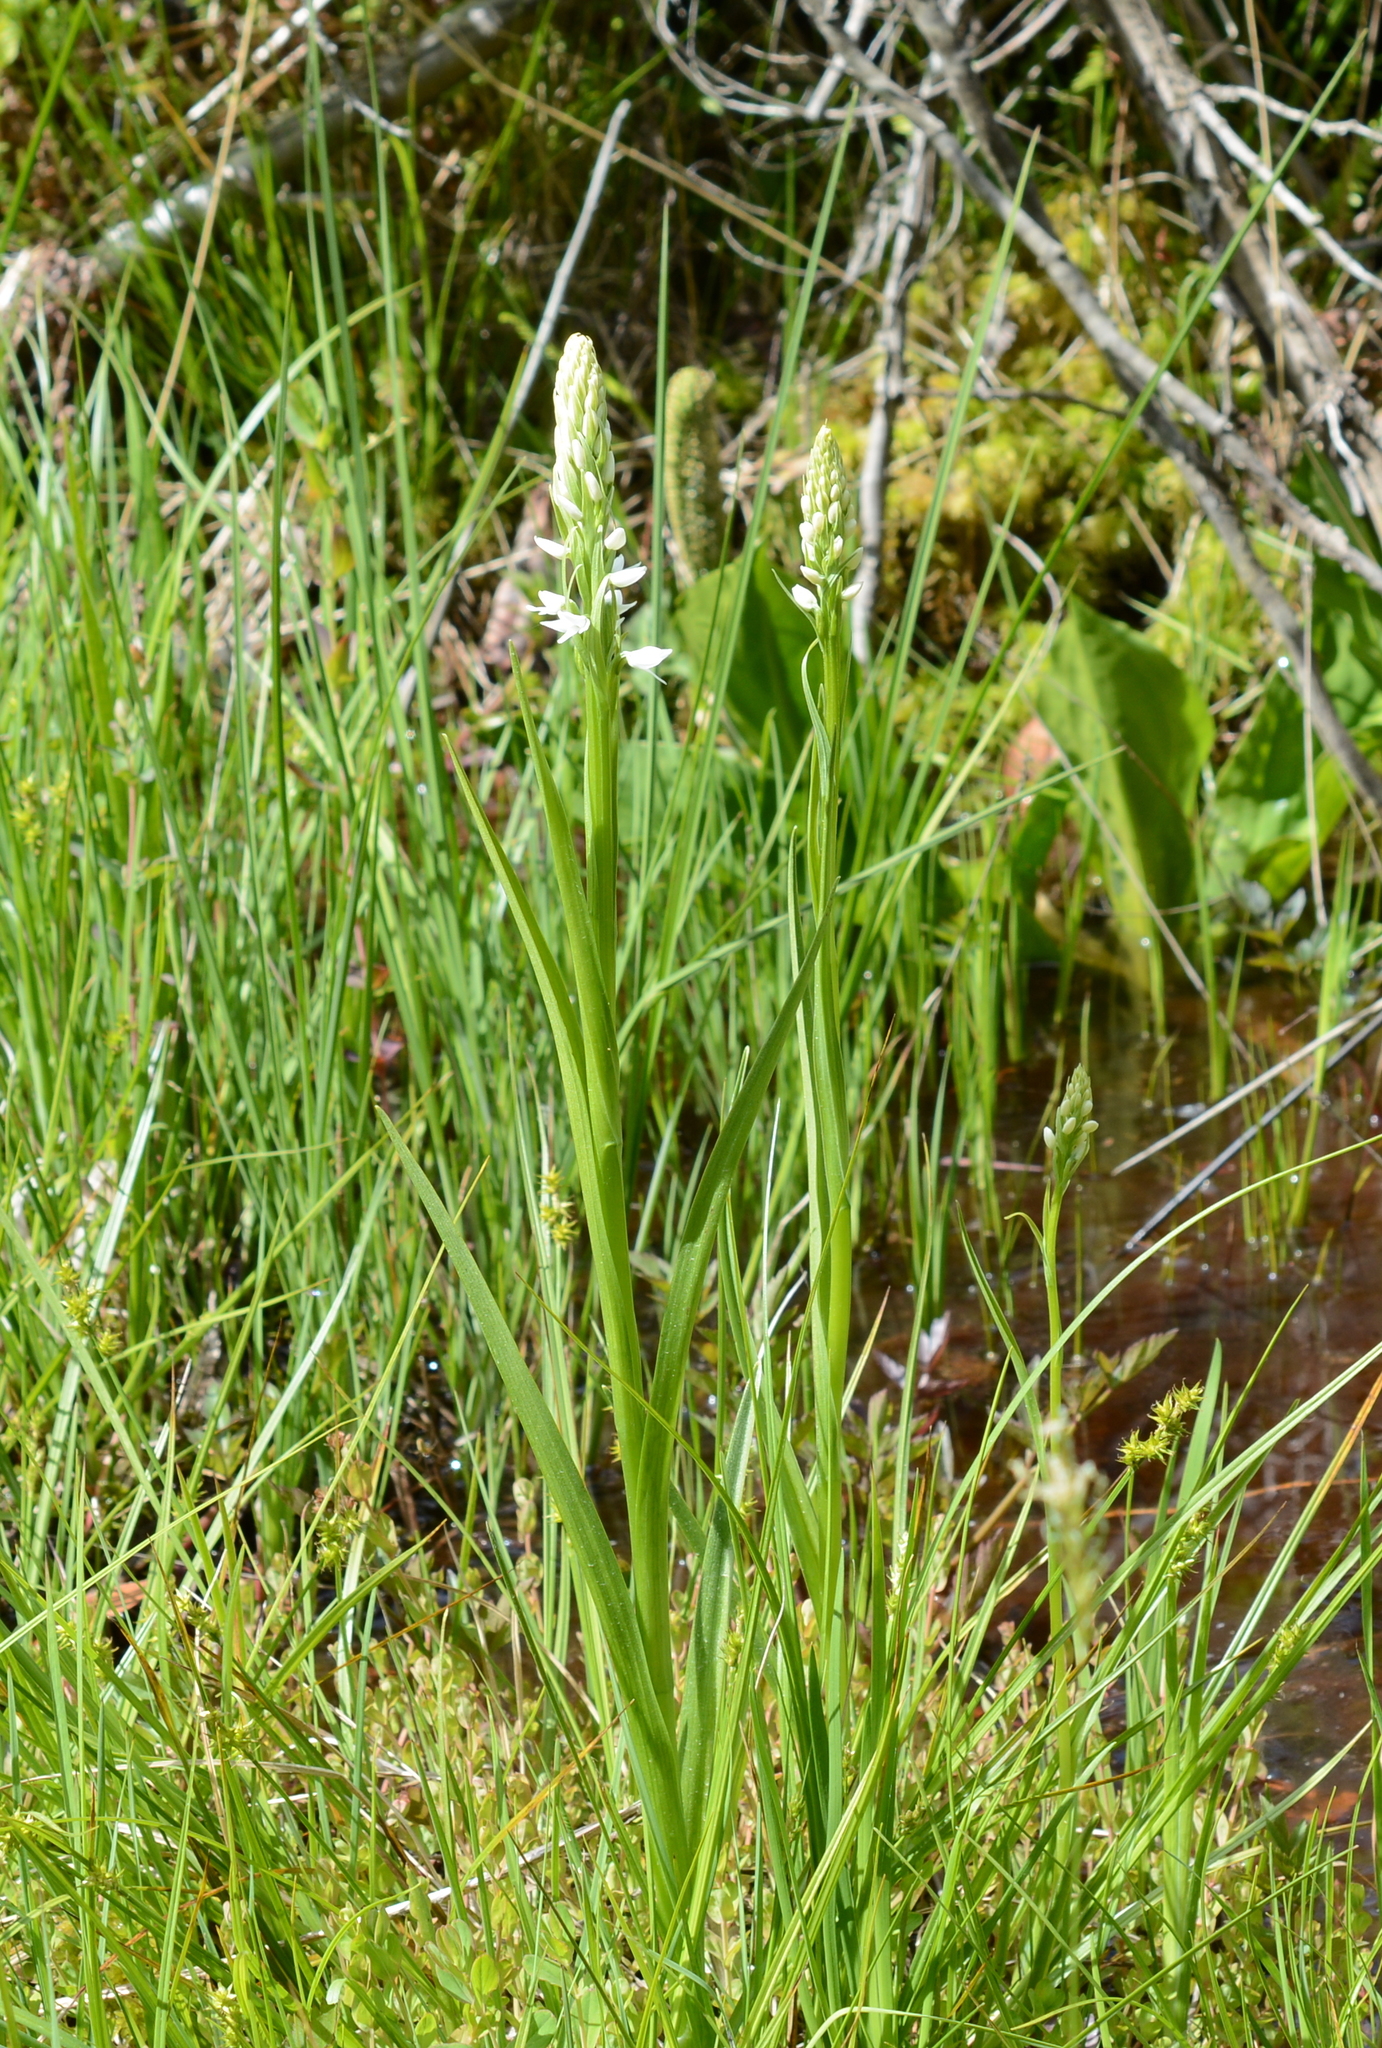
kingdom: Plantae
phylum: Tracheophyta
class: Liliopsida
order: Asparagales
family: Orchidaceae
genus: Platanthera
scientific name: Platanthera dilatata
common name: Bog candles
